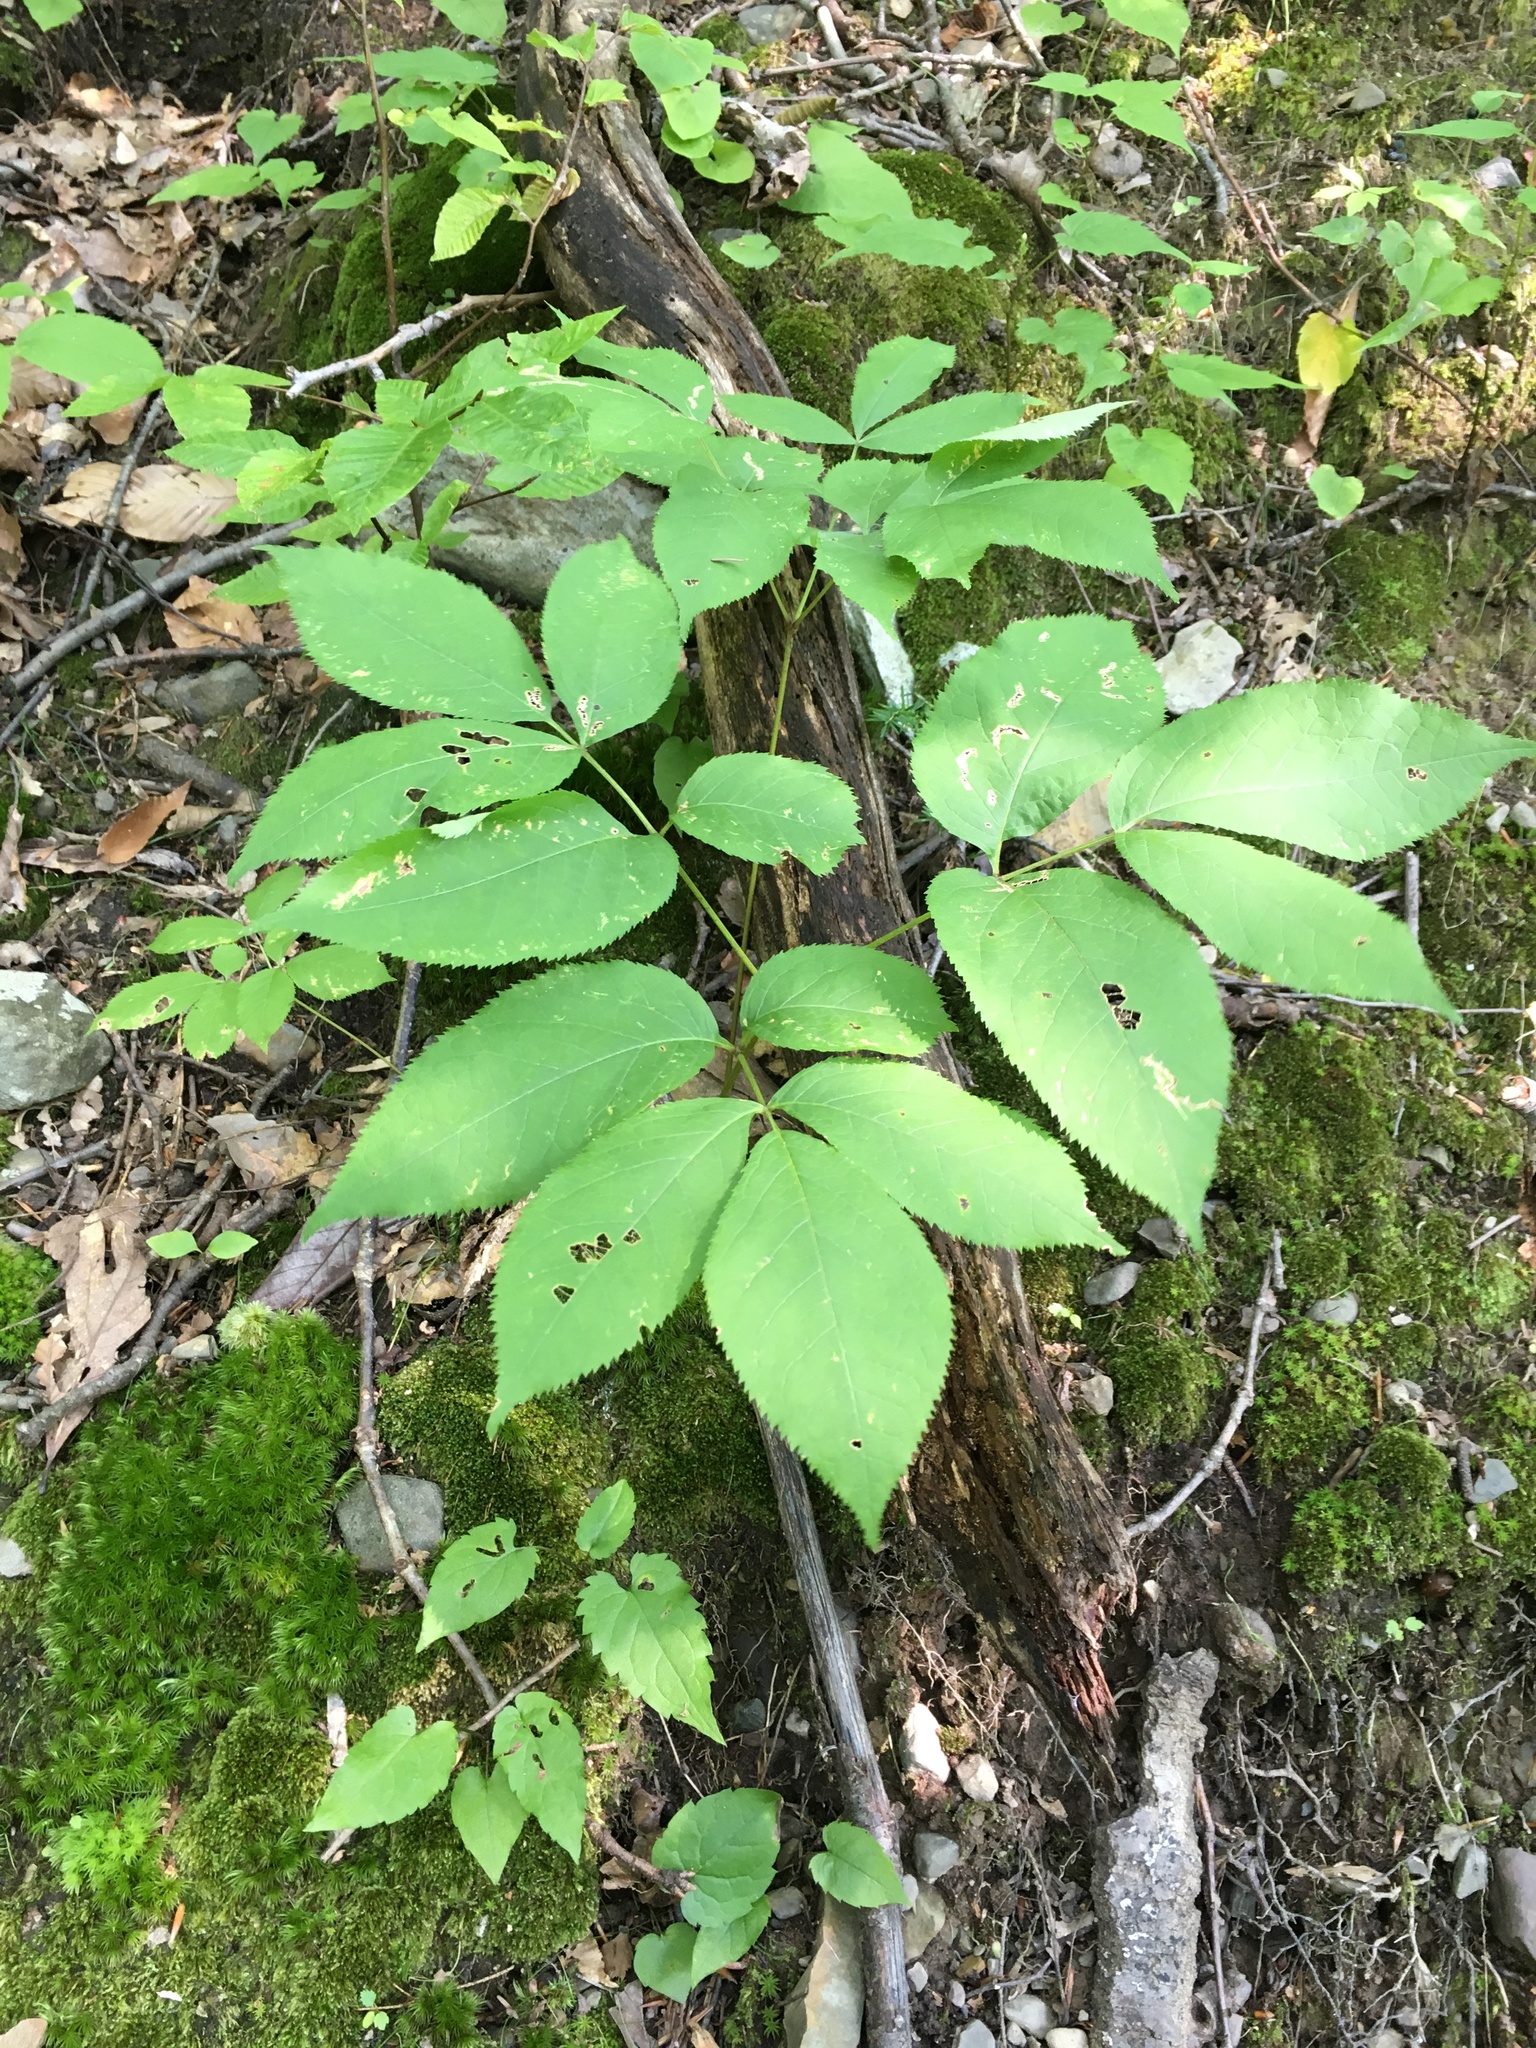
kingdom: Plantae
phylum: Tracheophyta
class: Magnoliopsida
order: Apiales
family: Araliaceae
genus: Aralia
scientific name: Aralia nudicaulis
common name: Wild sarsaparilla
